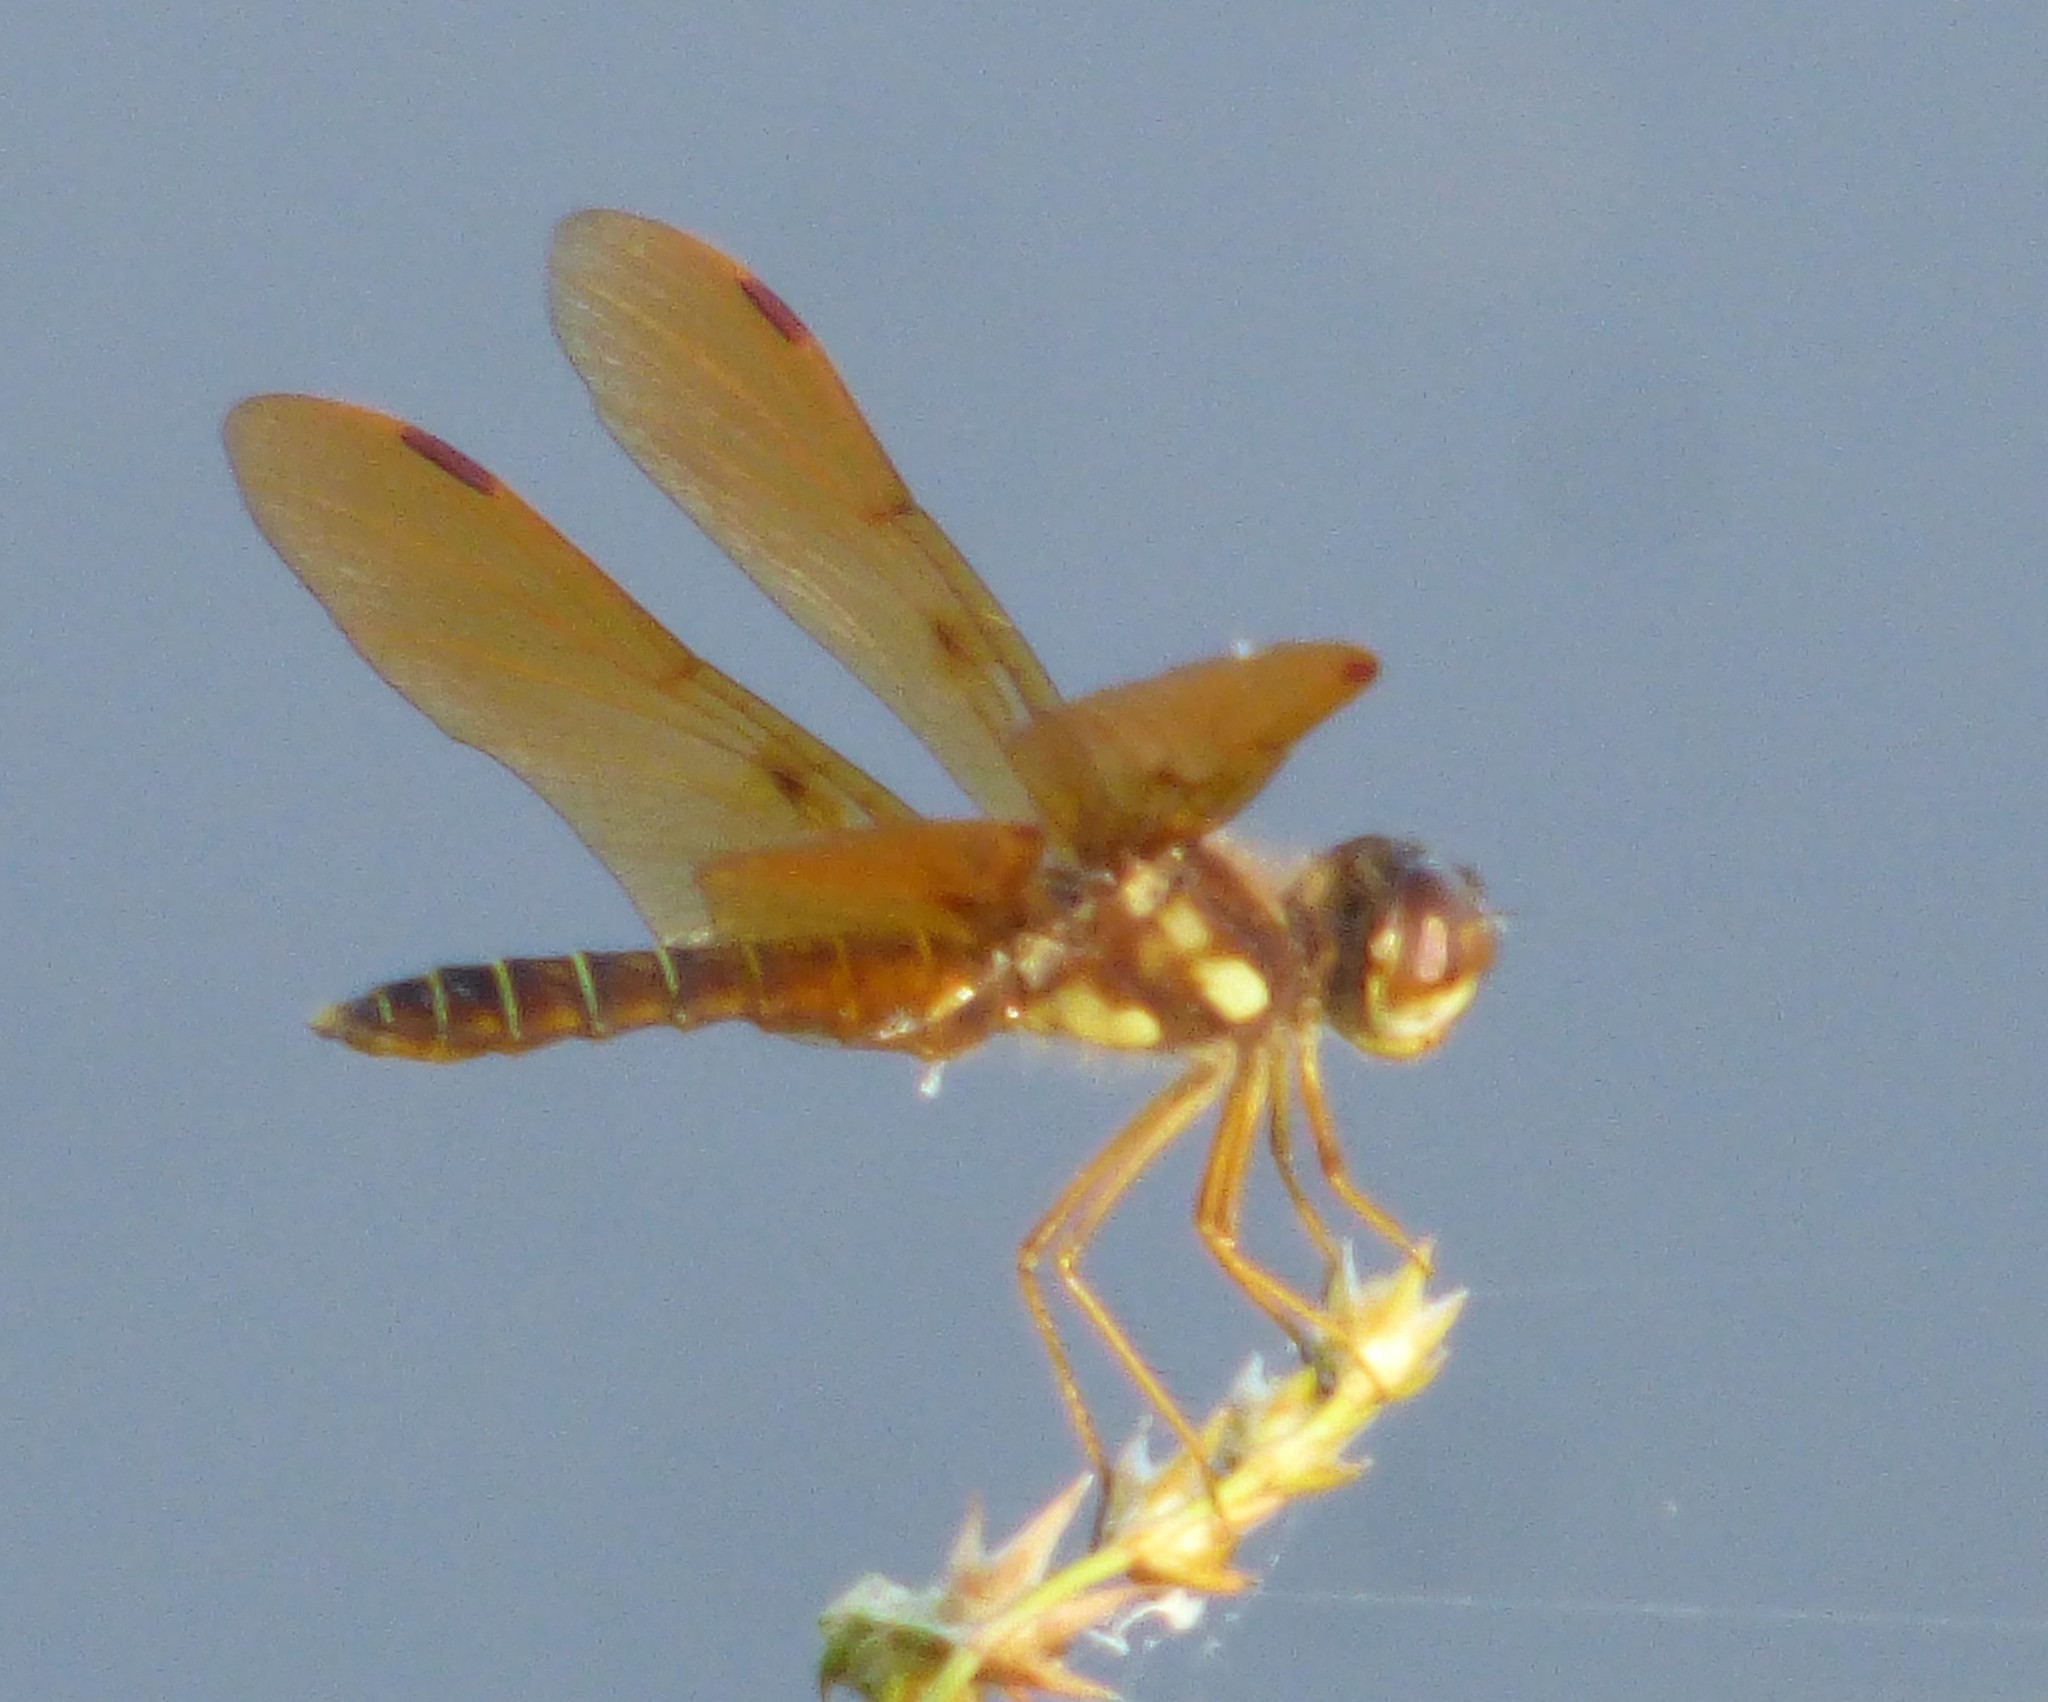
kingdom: Animalia
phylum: Arthropoda
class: Insecta
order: Odonata
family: Libellulidae
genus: Perithemis
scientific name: Perithemis tenera
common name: Eastern amberwing
